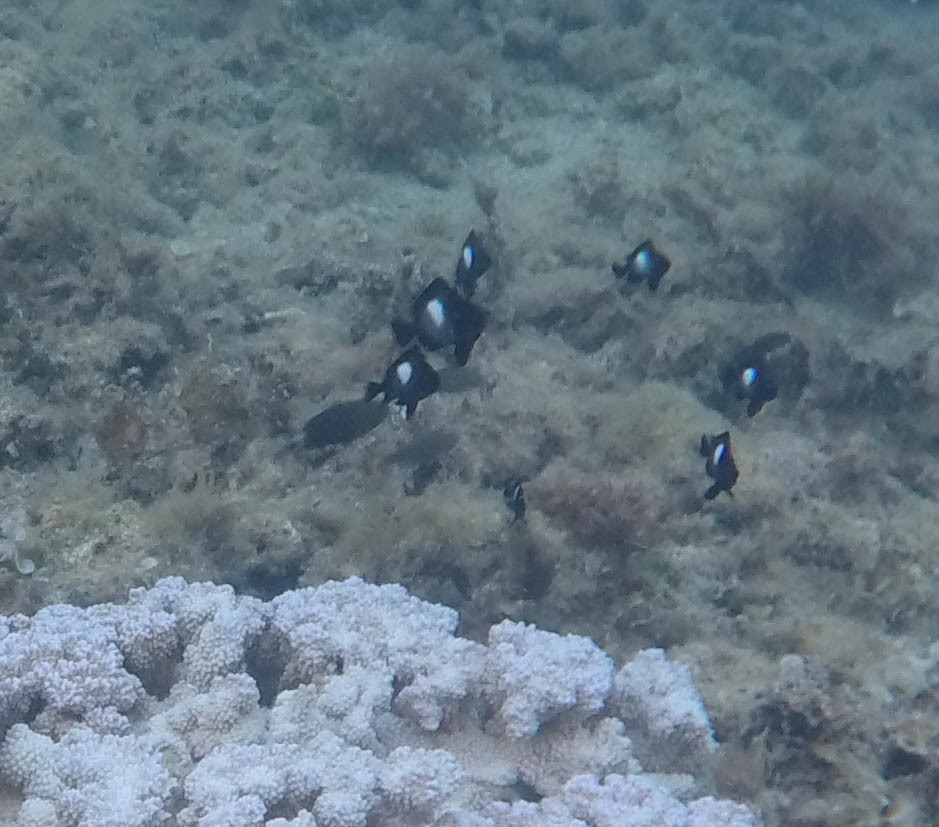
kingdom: Animalia
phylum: Chordata
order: Perciformes
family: Pomacentridae
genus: Dascyllus
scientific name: Dascyllus albisella
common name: Hawaiian dascyllus
